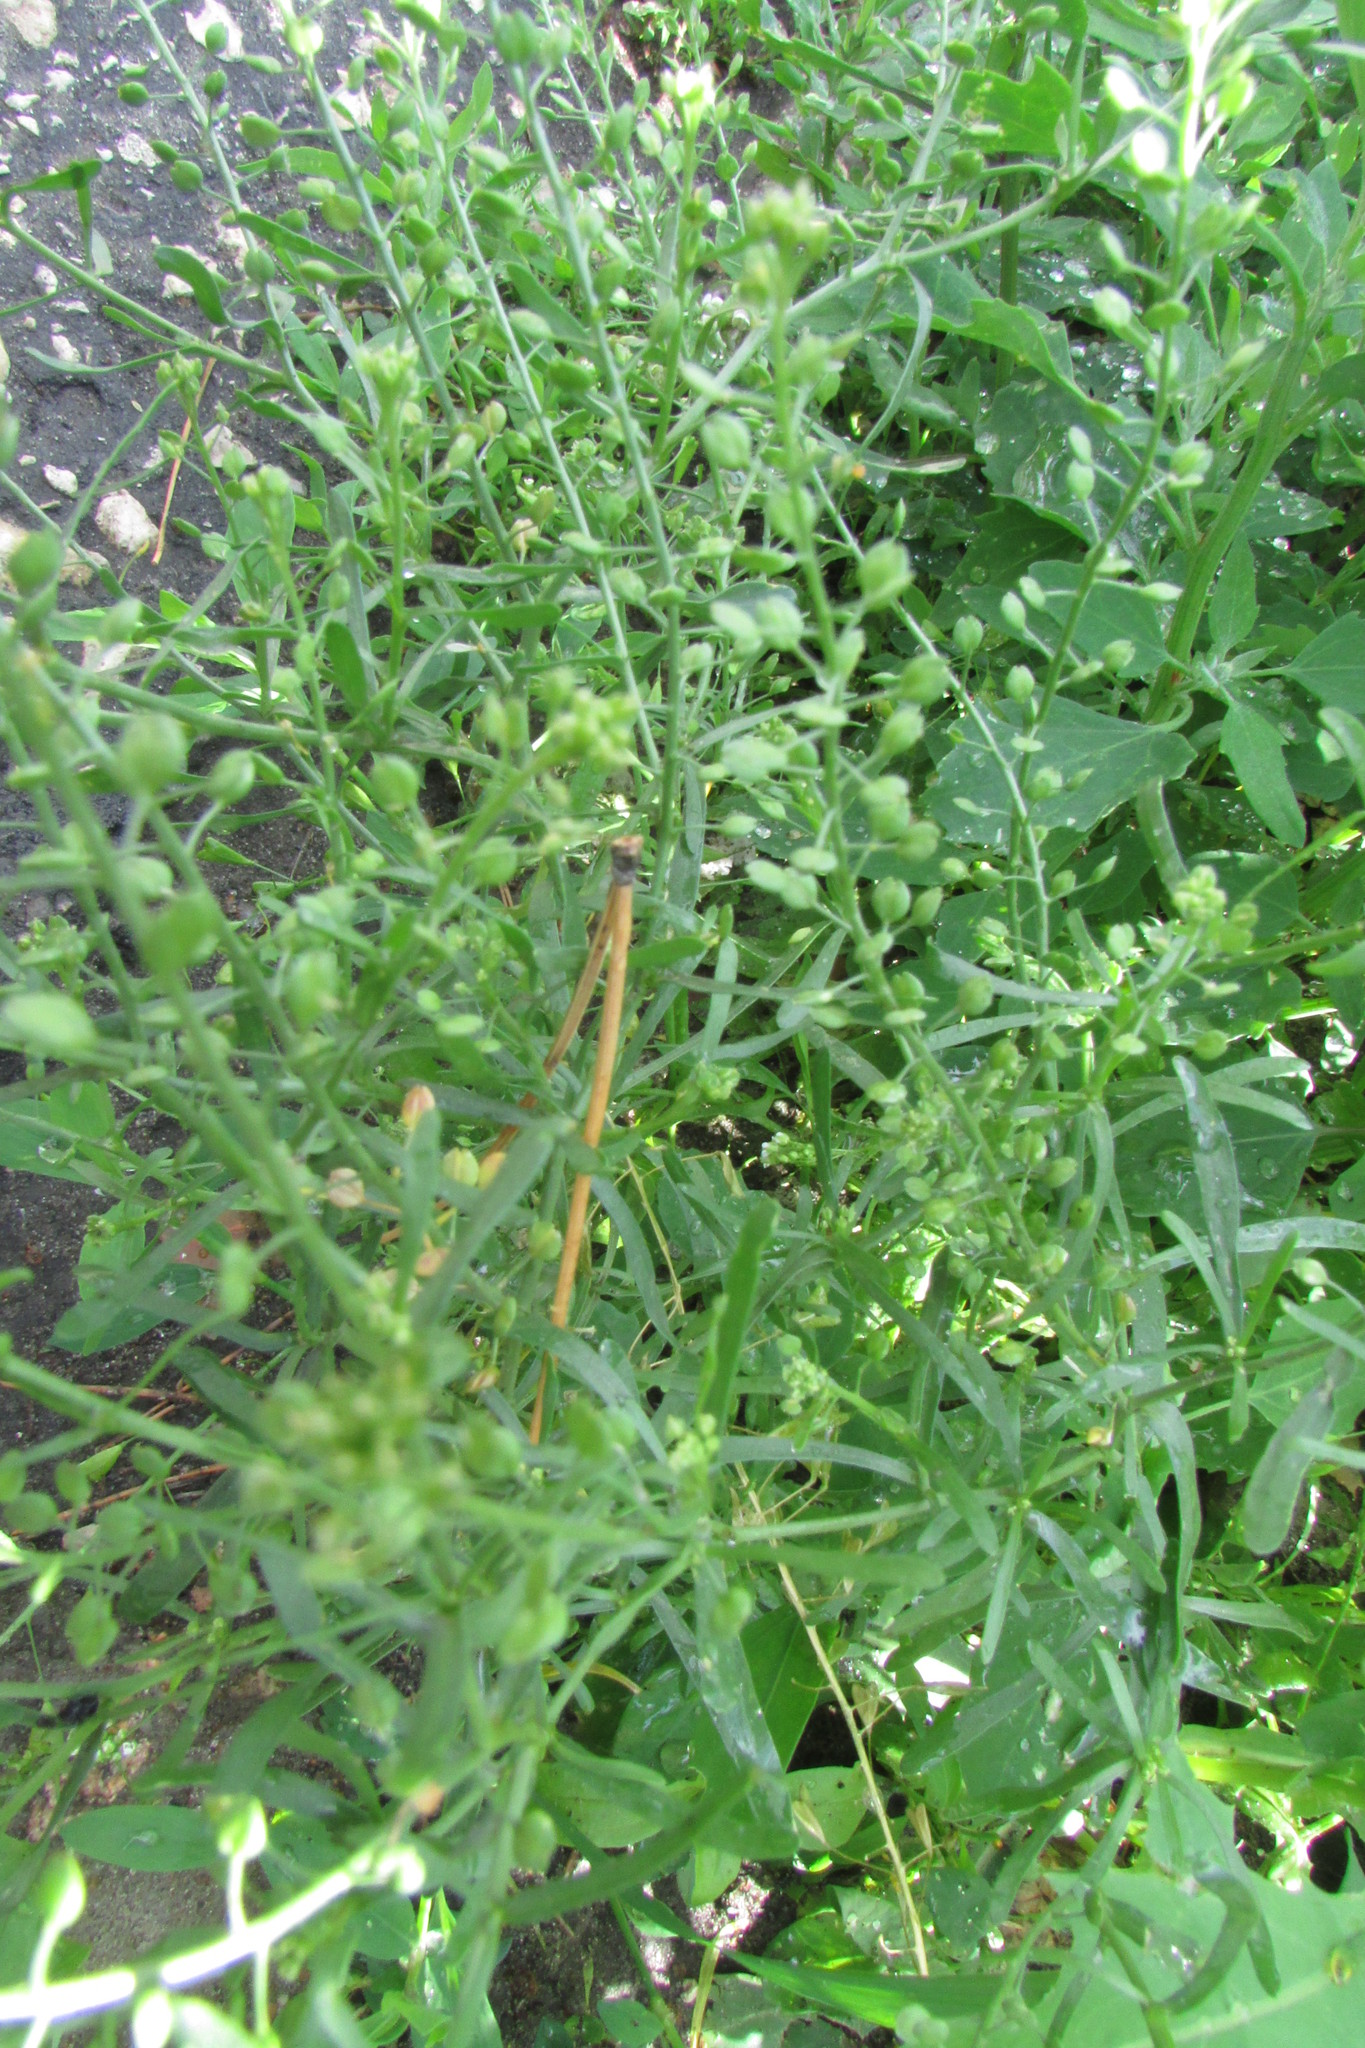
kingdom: Plantae
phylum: Tracheophyta
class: Magnoliopsida
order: Brassicales
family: Brassicaceae
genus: Lepidium
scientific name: Lepidium ruderale
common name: Narrow-leaved pepperwort
